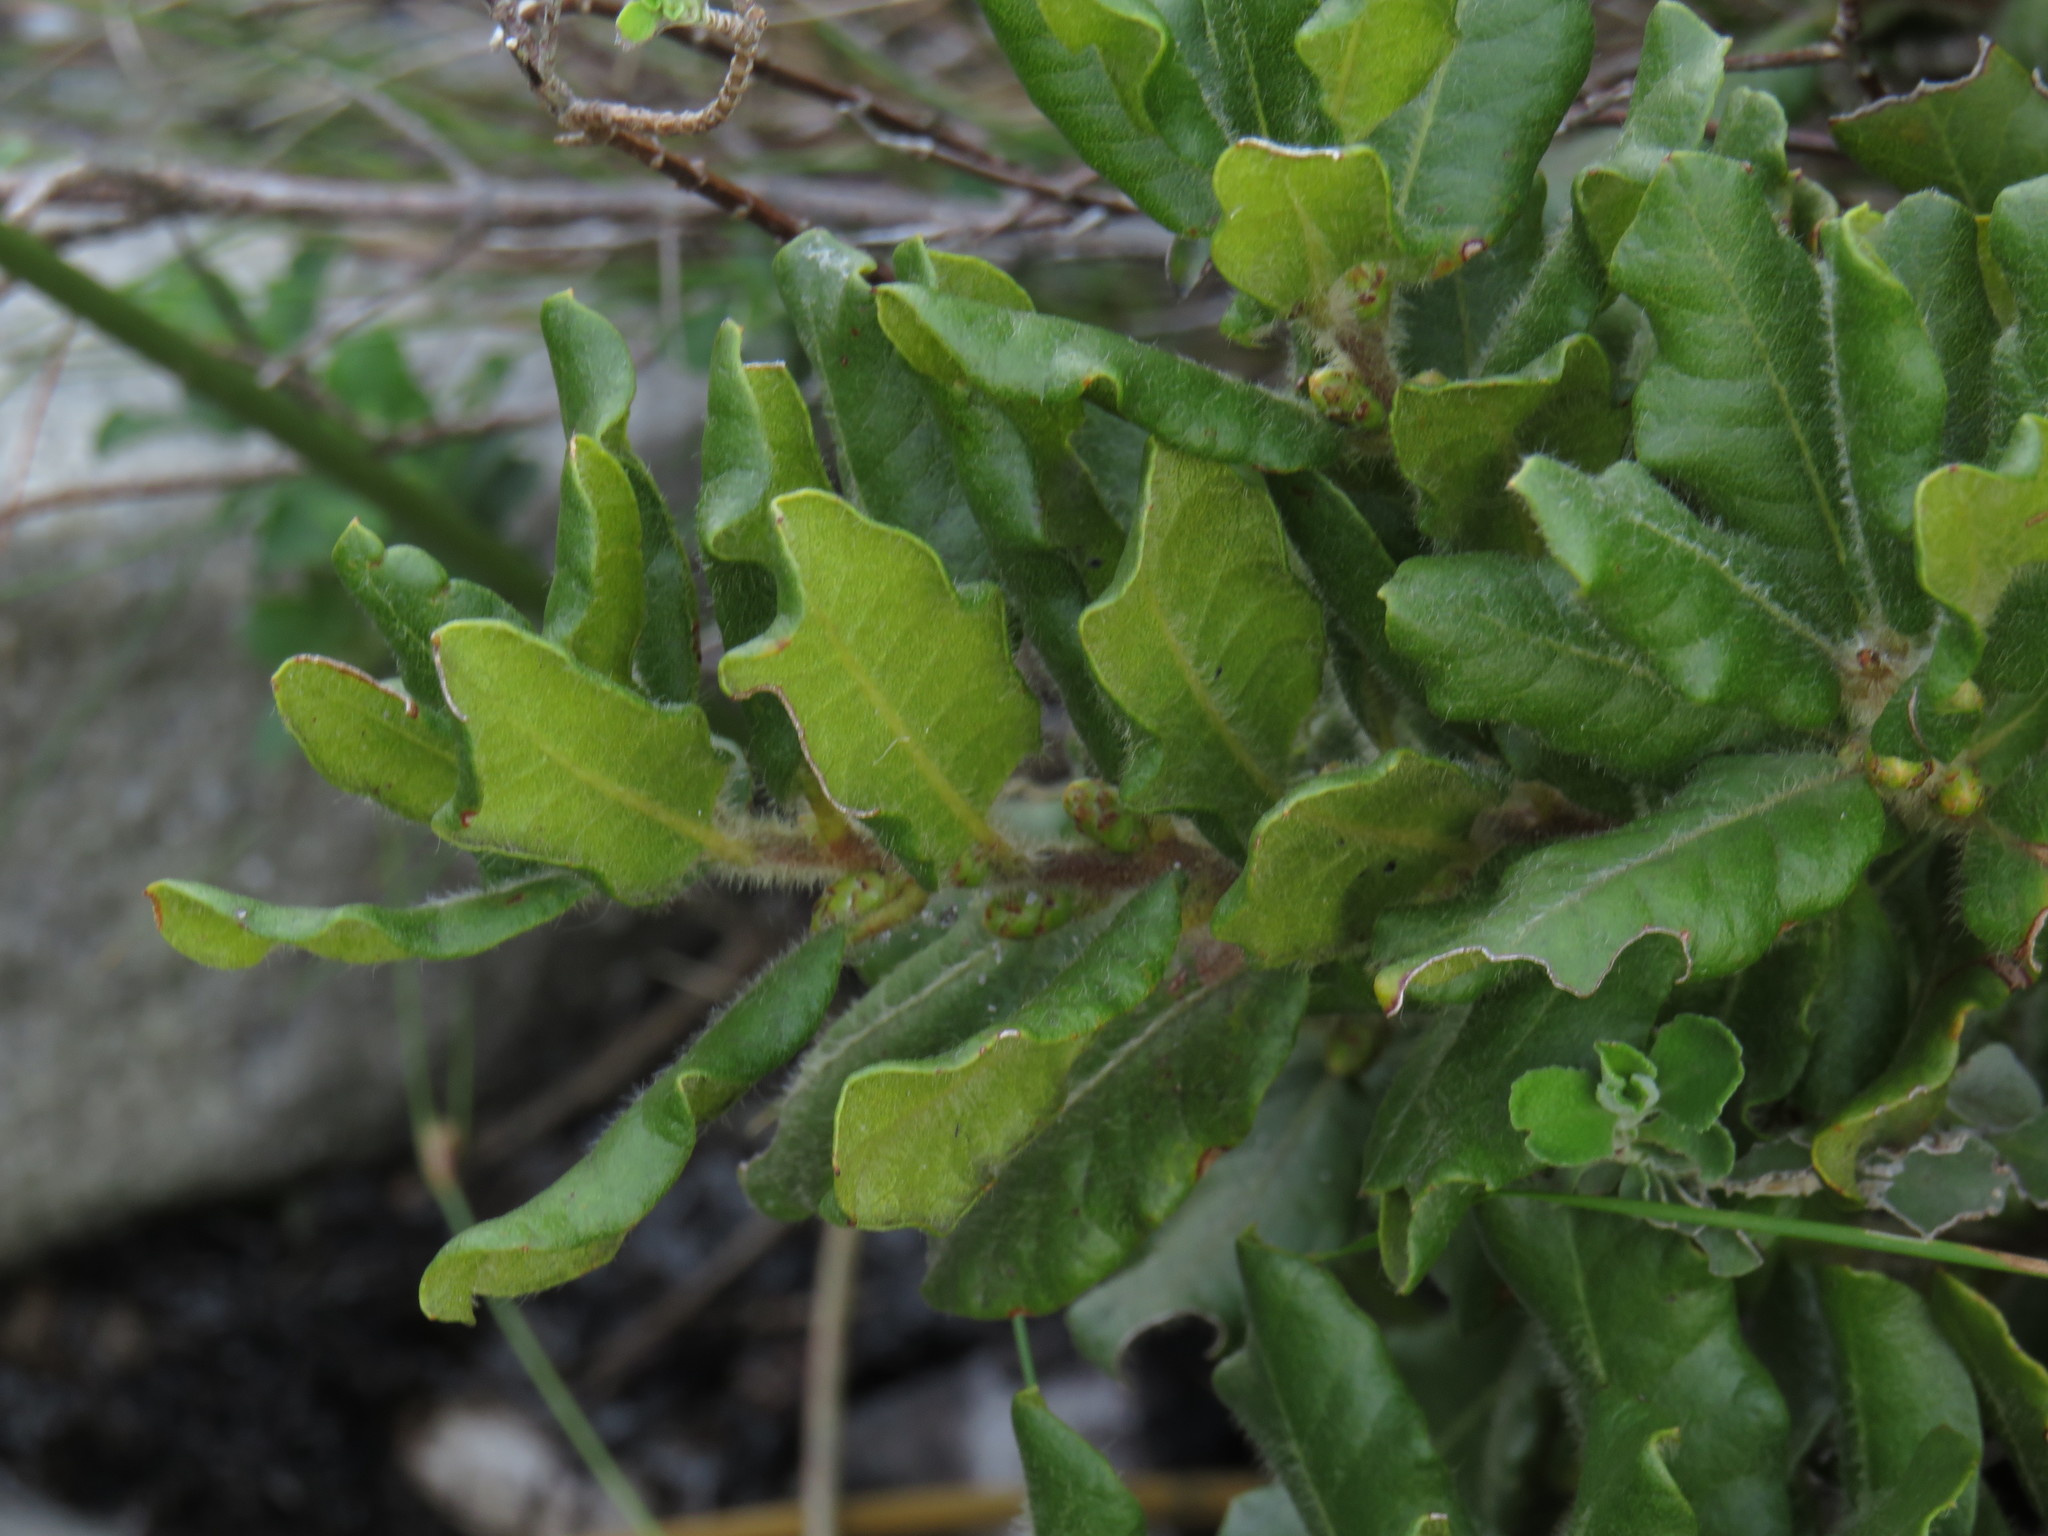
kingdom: Plantae
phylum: Tracheophyta
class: Magnoliopsida
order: Fagales
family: Myricaceae
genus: Morella
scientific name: Morella kraussiana
